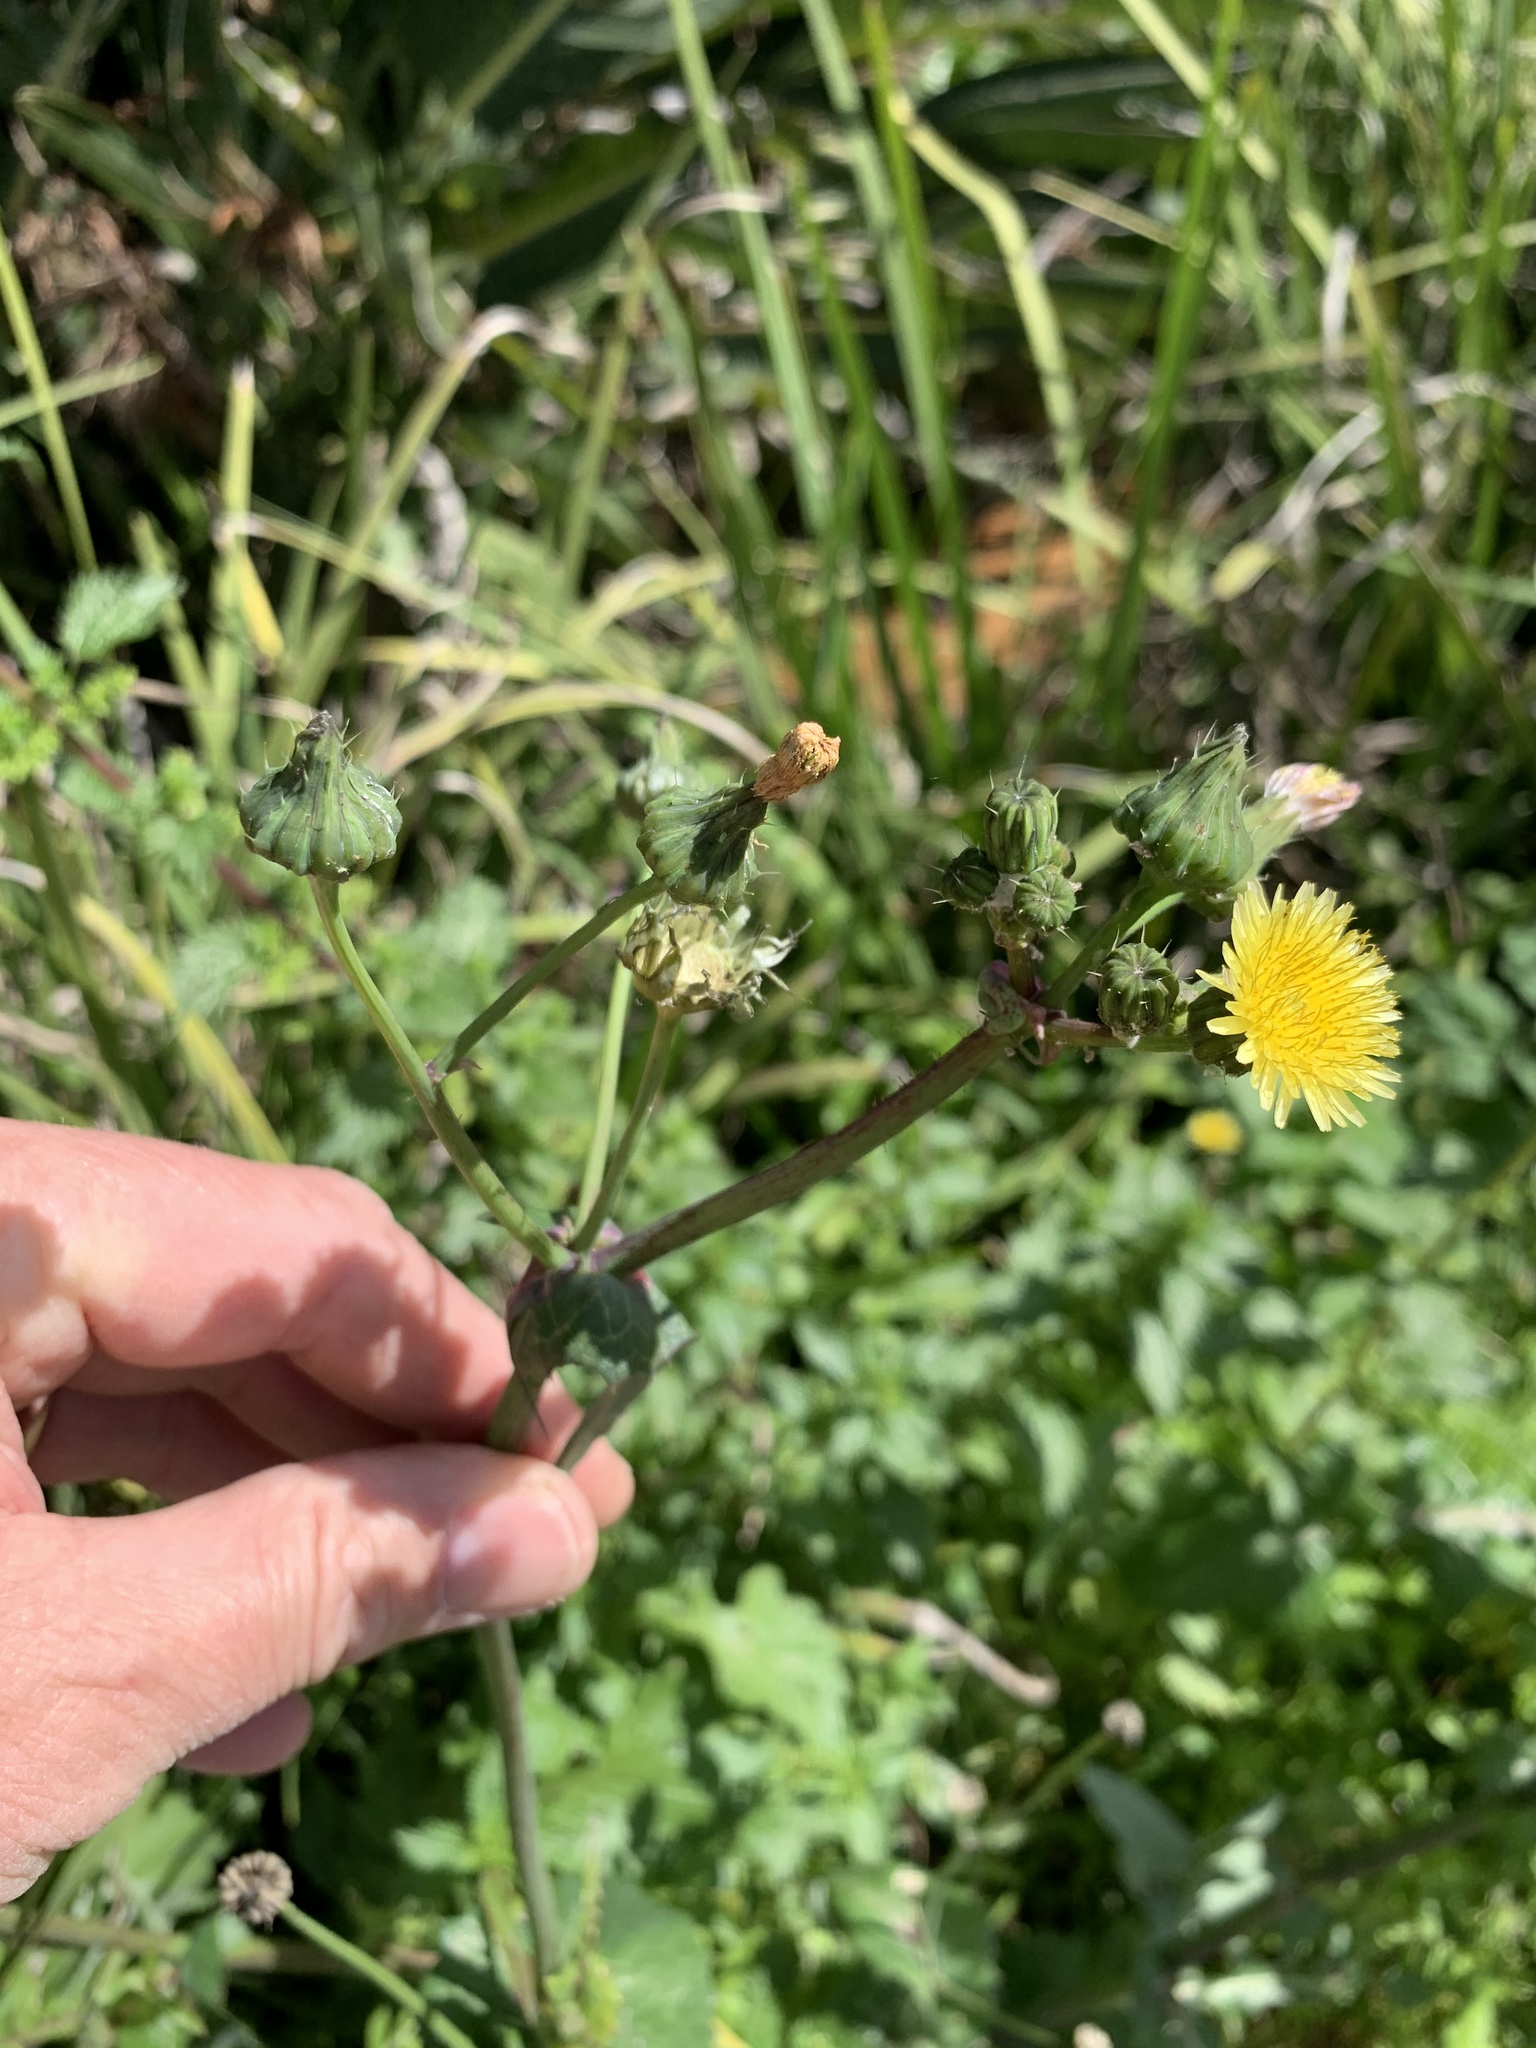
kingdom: Plantae
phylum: Tracheophyta
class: Magnoliopsida
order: Asterales
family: Asteraceae
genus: Sonchus
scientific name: Sonchus oleraceus
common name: Common sowthistle
